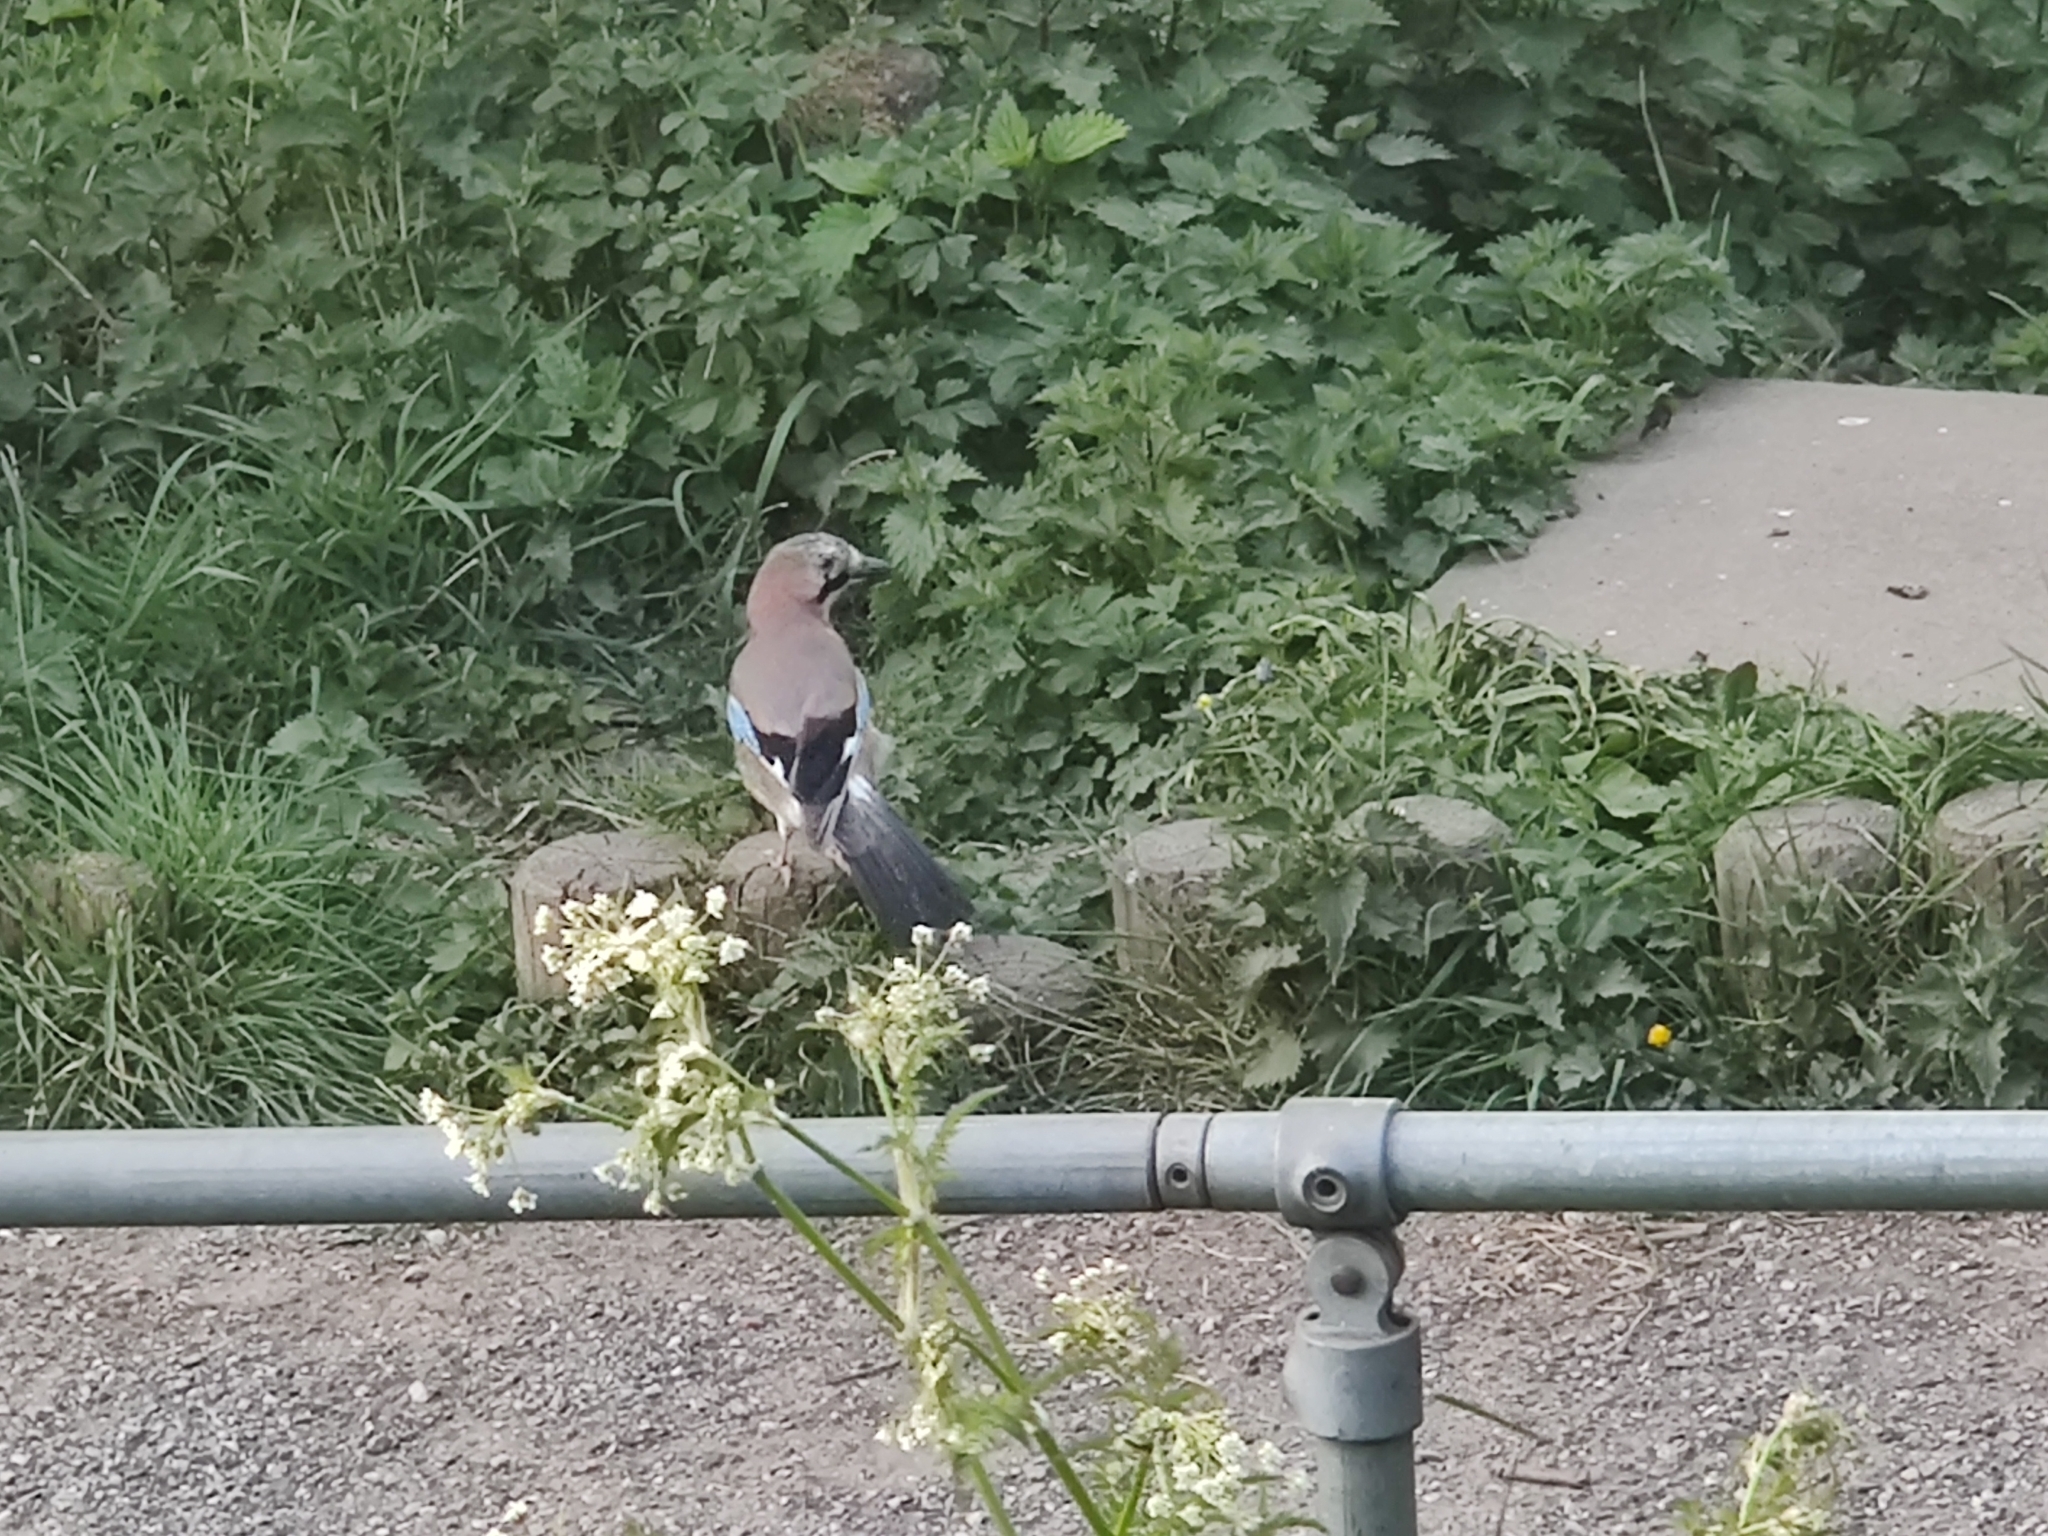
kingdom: Animalia
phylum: Chordata
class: Aves
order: Passeriformes
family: Corvidae
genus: Garrulus
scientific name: Garrulus glandarius
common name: Eurasian jay
